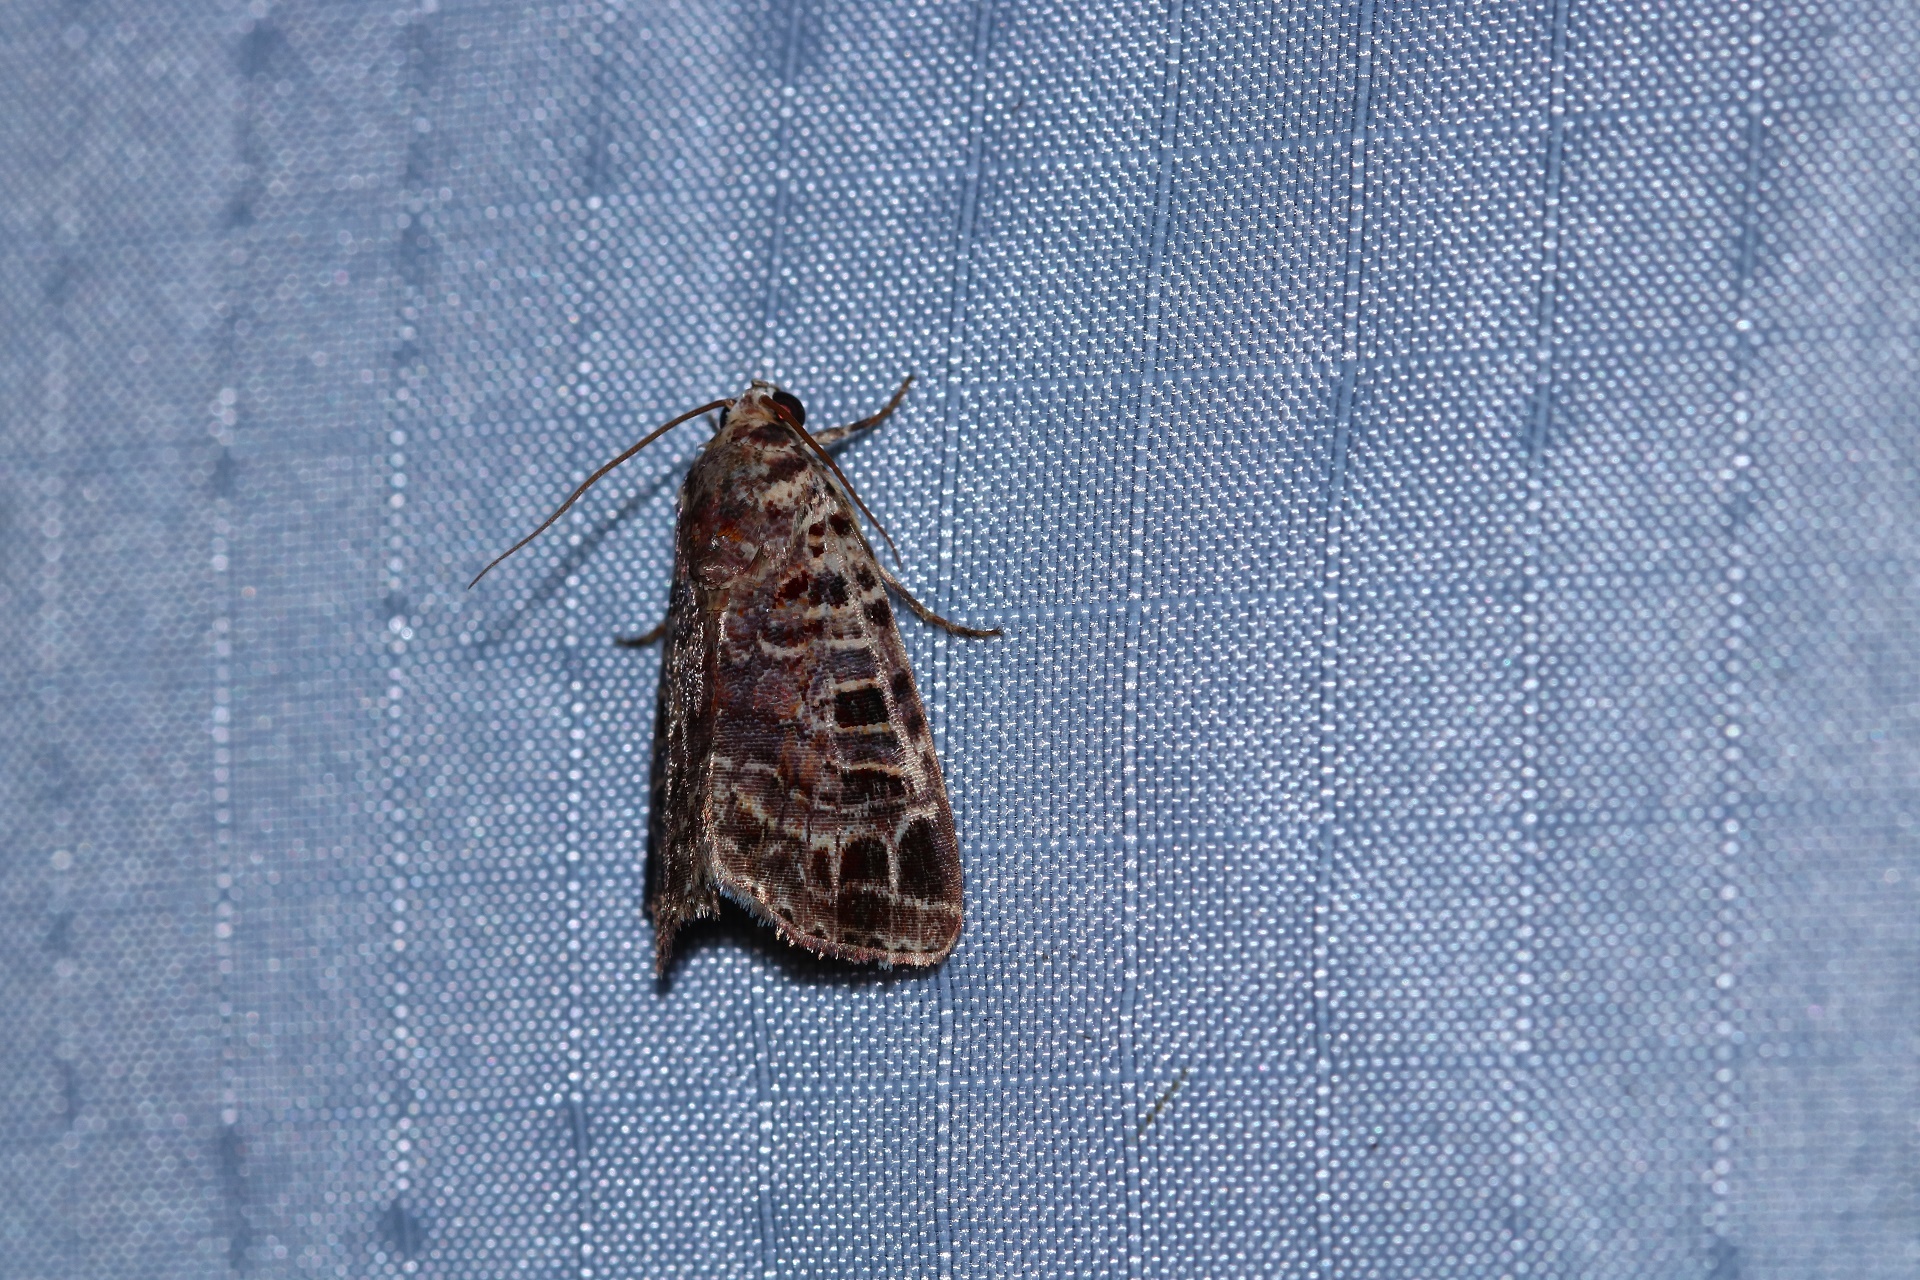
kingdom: Animalia
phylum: Arthropoda
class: Insecta
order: Lepidoptera
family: Noctuidae
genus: Iambia
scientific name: Iambia lyricalis
